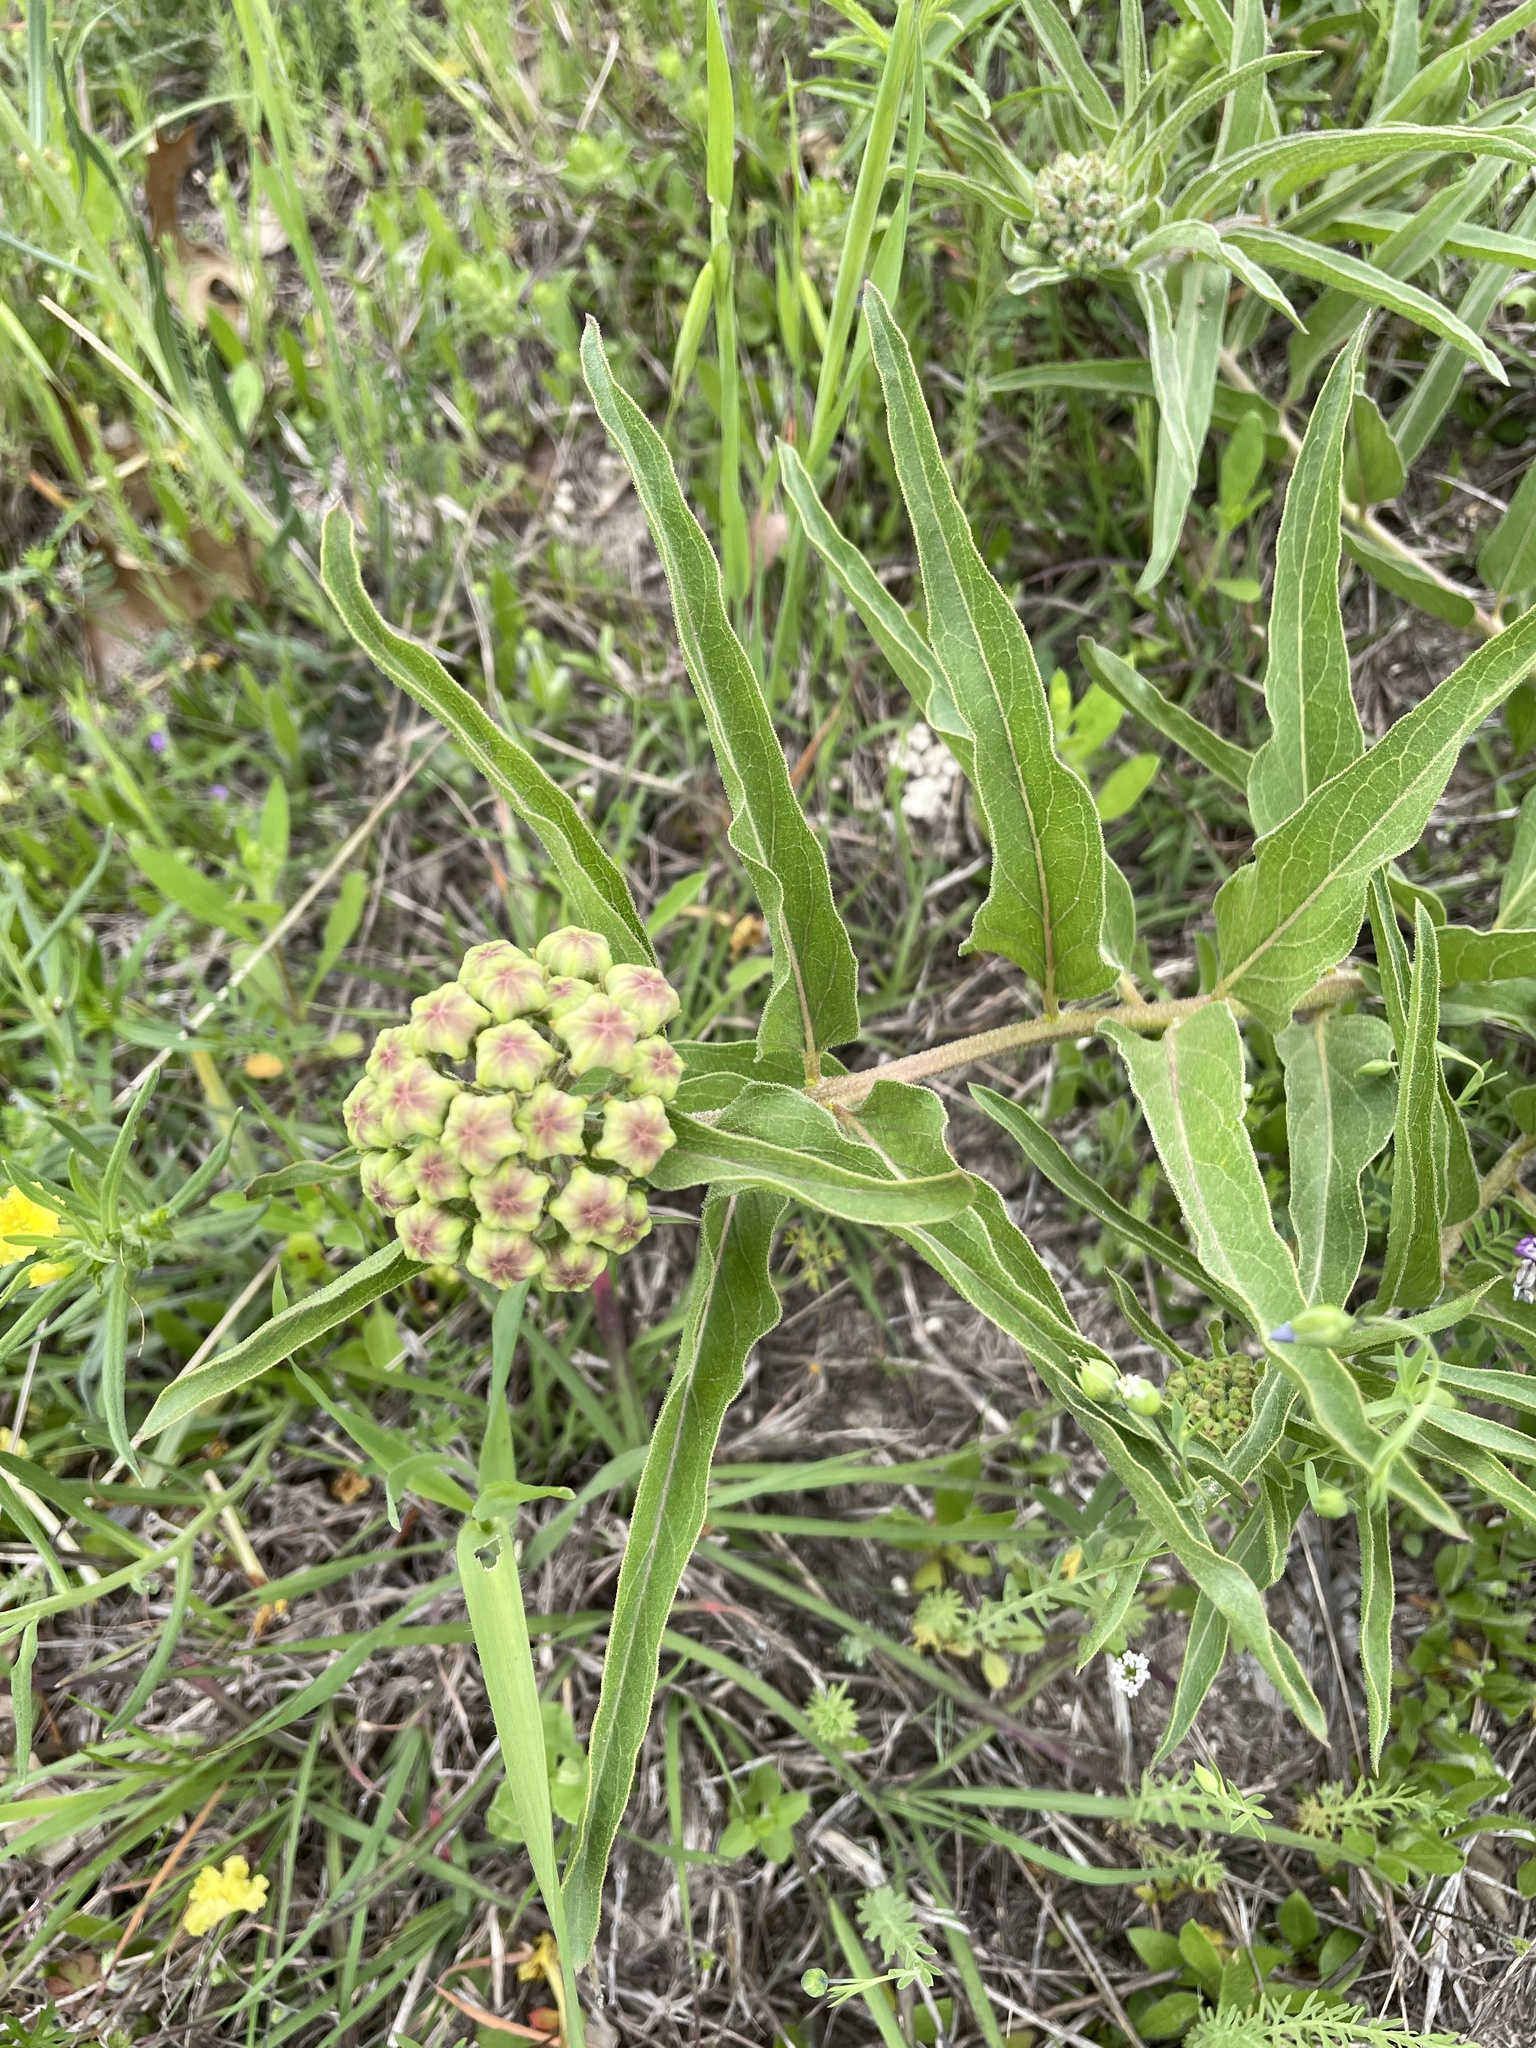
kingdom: Plantae
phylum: Tracheophyta
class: Magnoliopsida
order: Gentianales
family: Apocynaceae
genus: Asclepias
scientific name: Asclepias asperula
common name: Antelope horns
